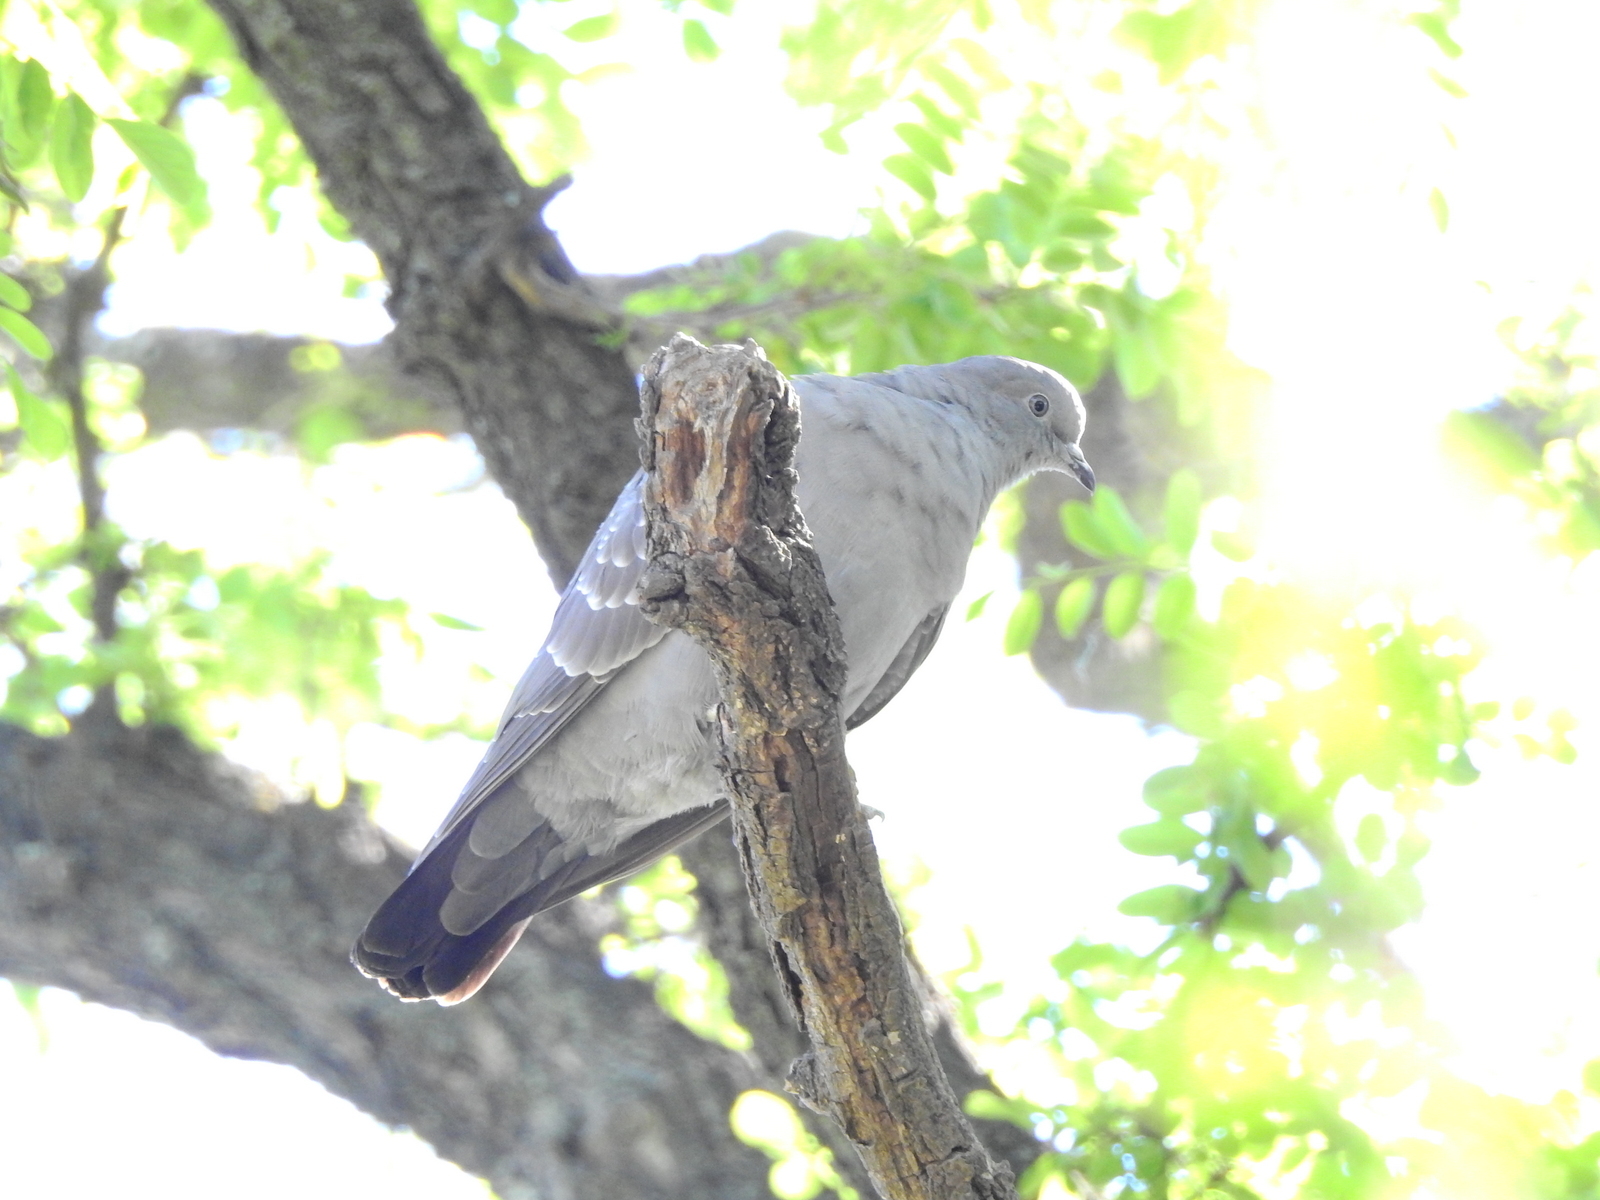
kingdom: Animalia
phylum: Chordata
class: Aves
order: Columbiformes
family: Columbidae
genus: Patagioenas
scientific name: Patagioenas maculosa
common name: Spot-winged pigeon
